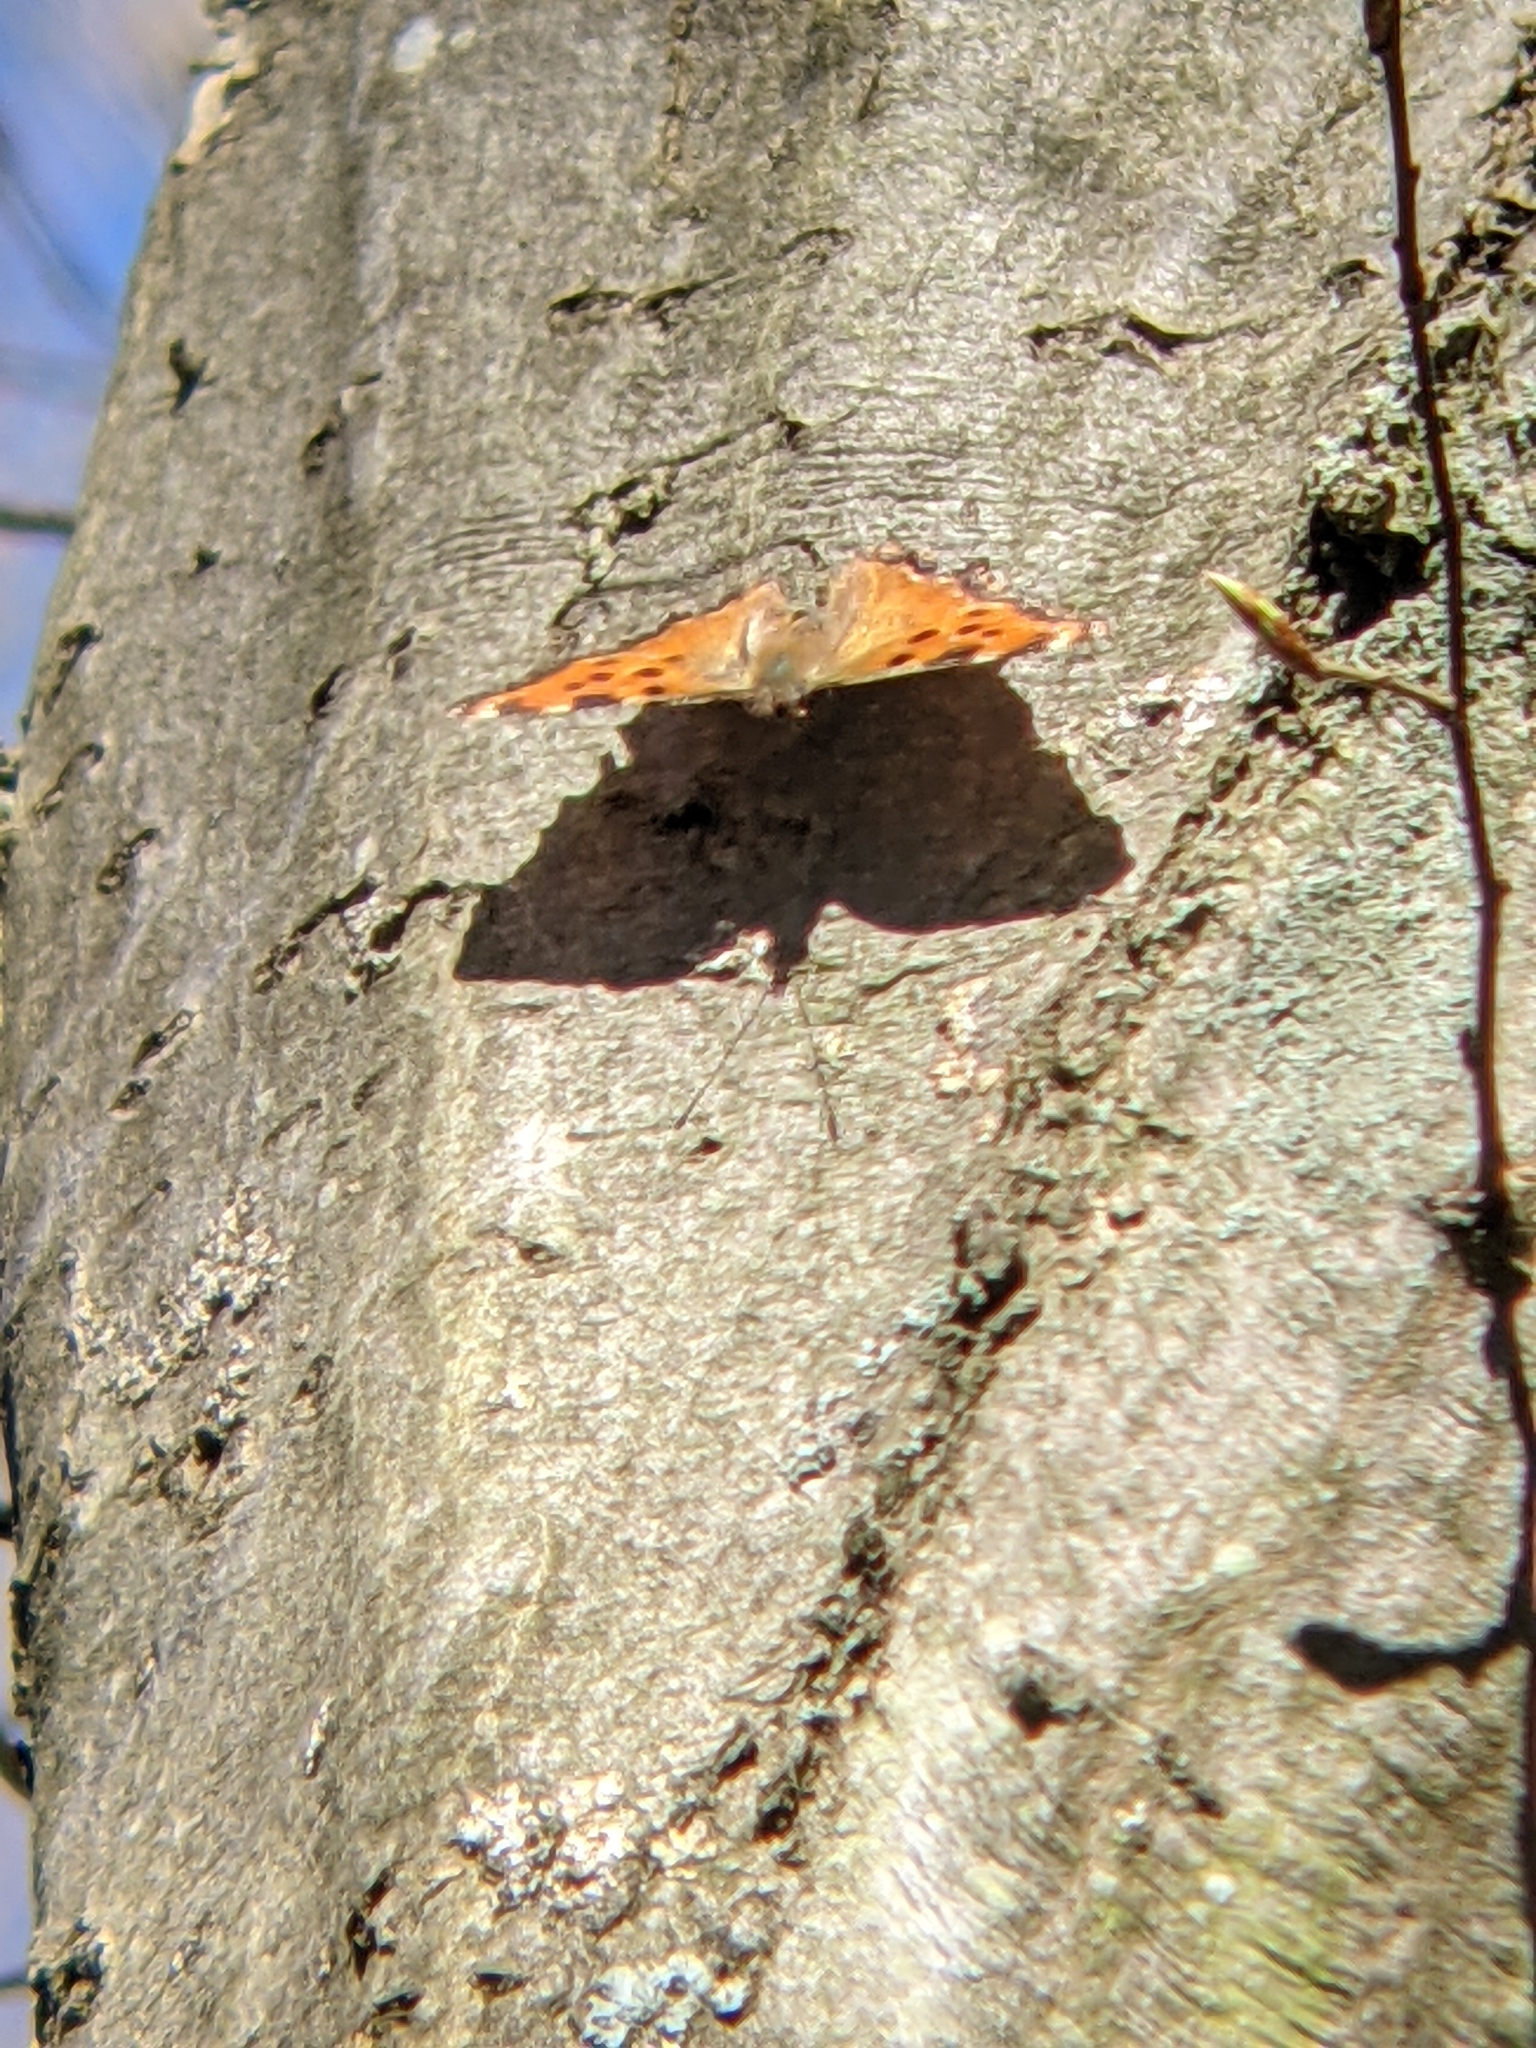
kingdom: Animalia
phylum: Arthropoda
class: Insecta
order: Lepidoptera
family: Nymphalidae
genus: Nymphalis
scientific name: Nymphalis polychloros
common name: Large tortoiseshell
